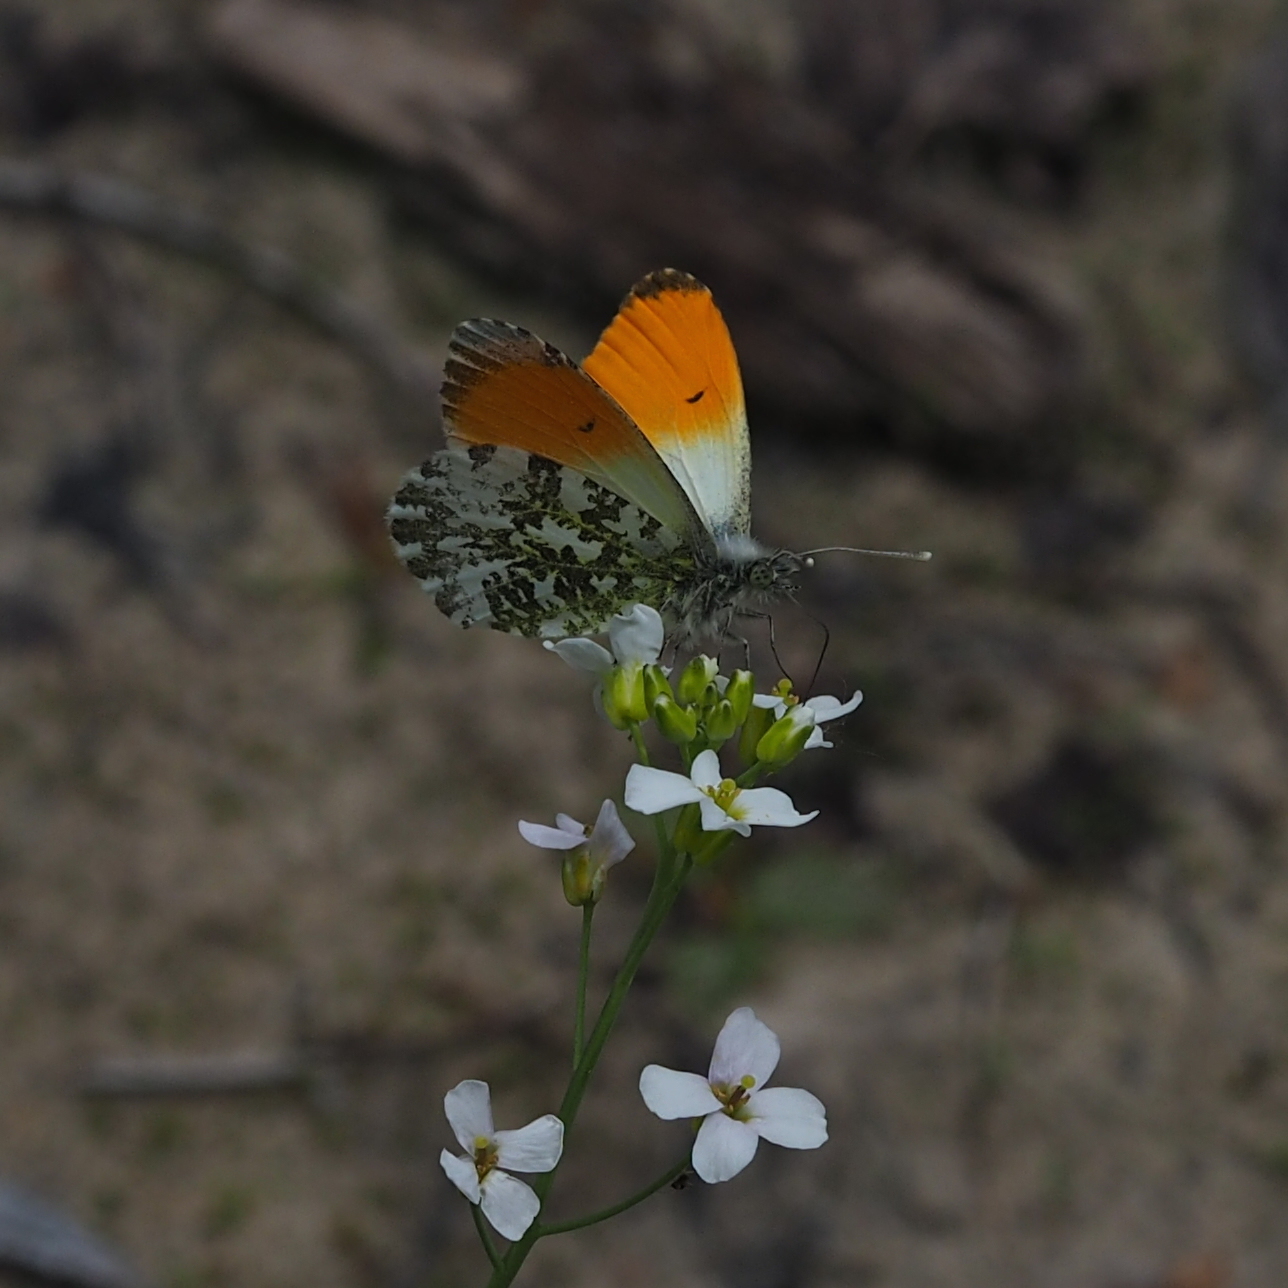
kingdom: Animalia
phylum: Arthropoda
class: Insecta
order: Lepidoptera
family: Pieridae
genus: Anthocharis
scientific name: Anthocharis cardamines
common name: Orange-tip
